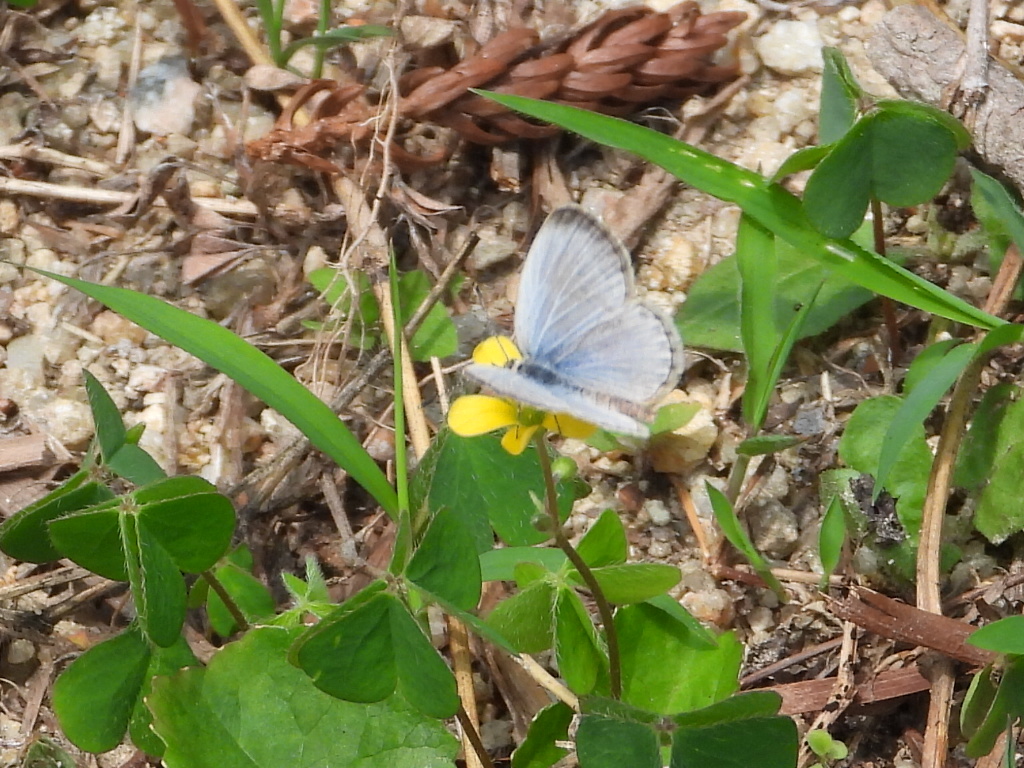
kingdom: Animalia
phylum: Arthropoda
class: Insecta
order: Lepidoptera
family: Lycaenidae
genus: Pseudozizeeria
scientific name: Pseudozizeeria maha
